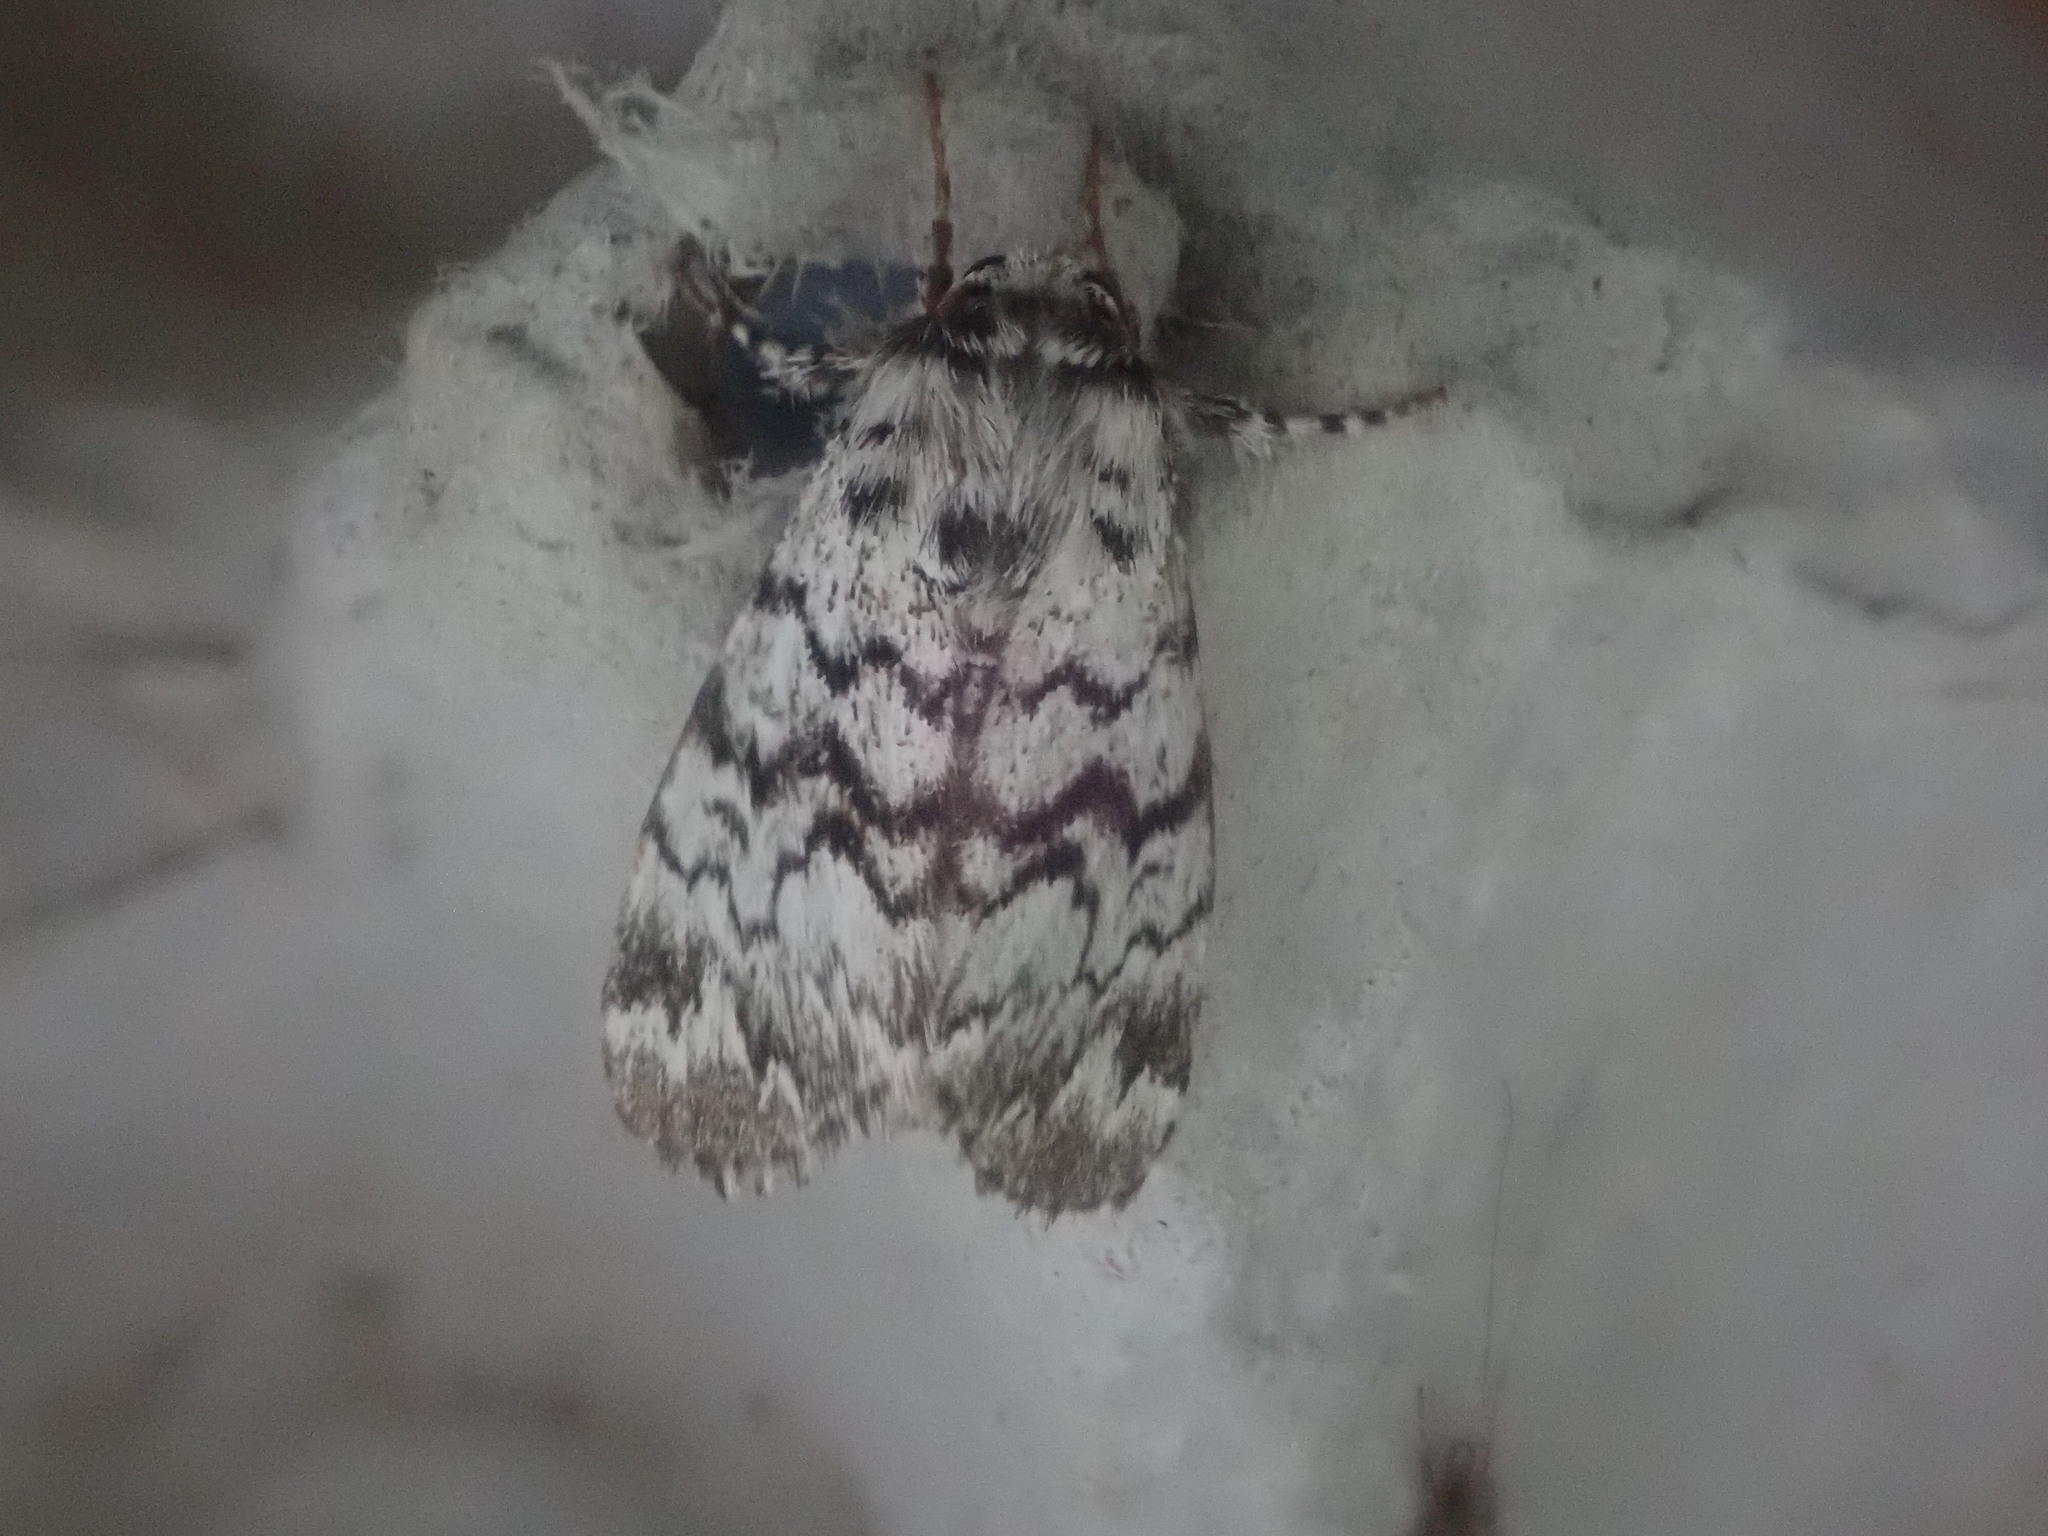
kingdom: Animalia
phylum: Arthropoda
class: Insecta
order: Lepidoptera
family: Noctuidae
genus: Panthea
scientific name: Panthea acronyctoides
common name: Black zigzag moth
